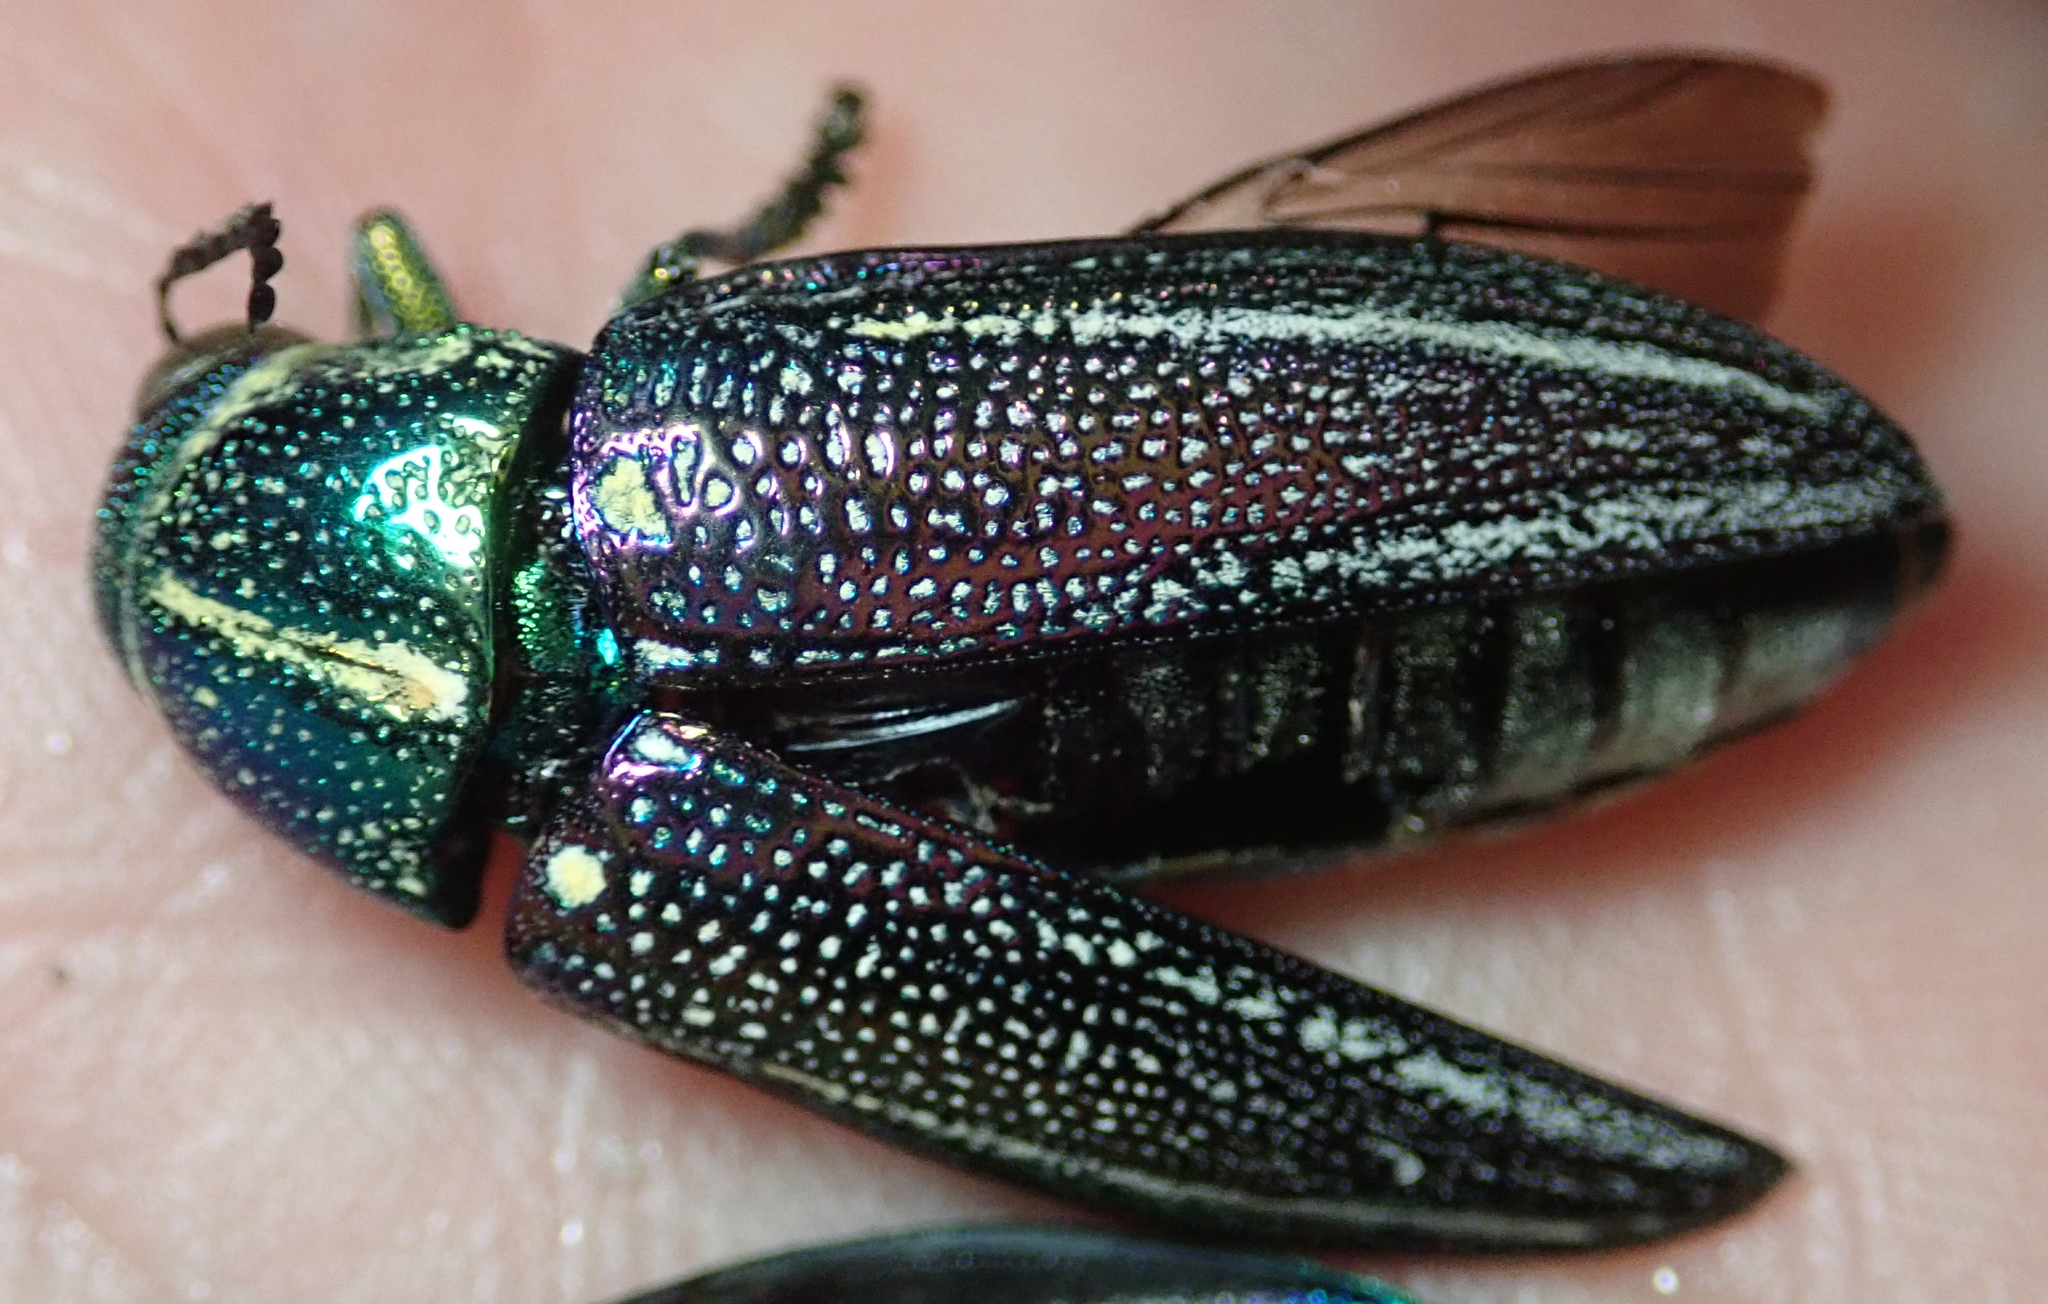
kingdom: Animalia
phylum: Arthropoda
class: Insecta
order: Coleoptera
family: Buprestidae
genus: Amblysterna
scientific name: Amblysterna natalensis
